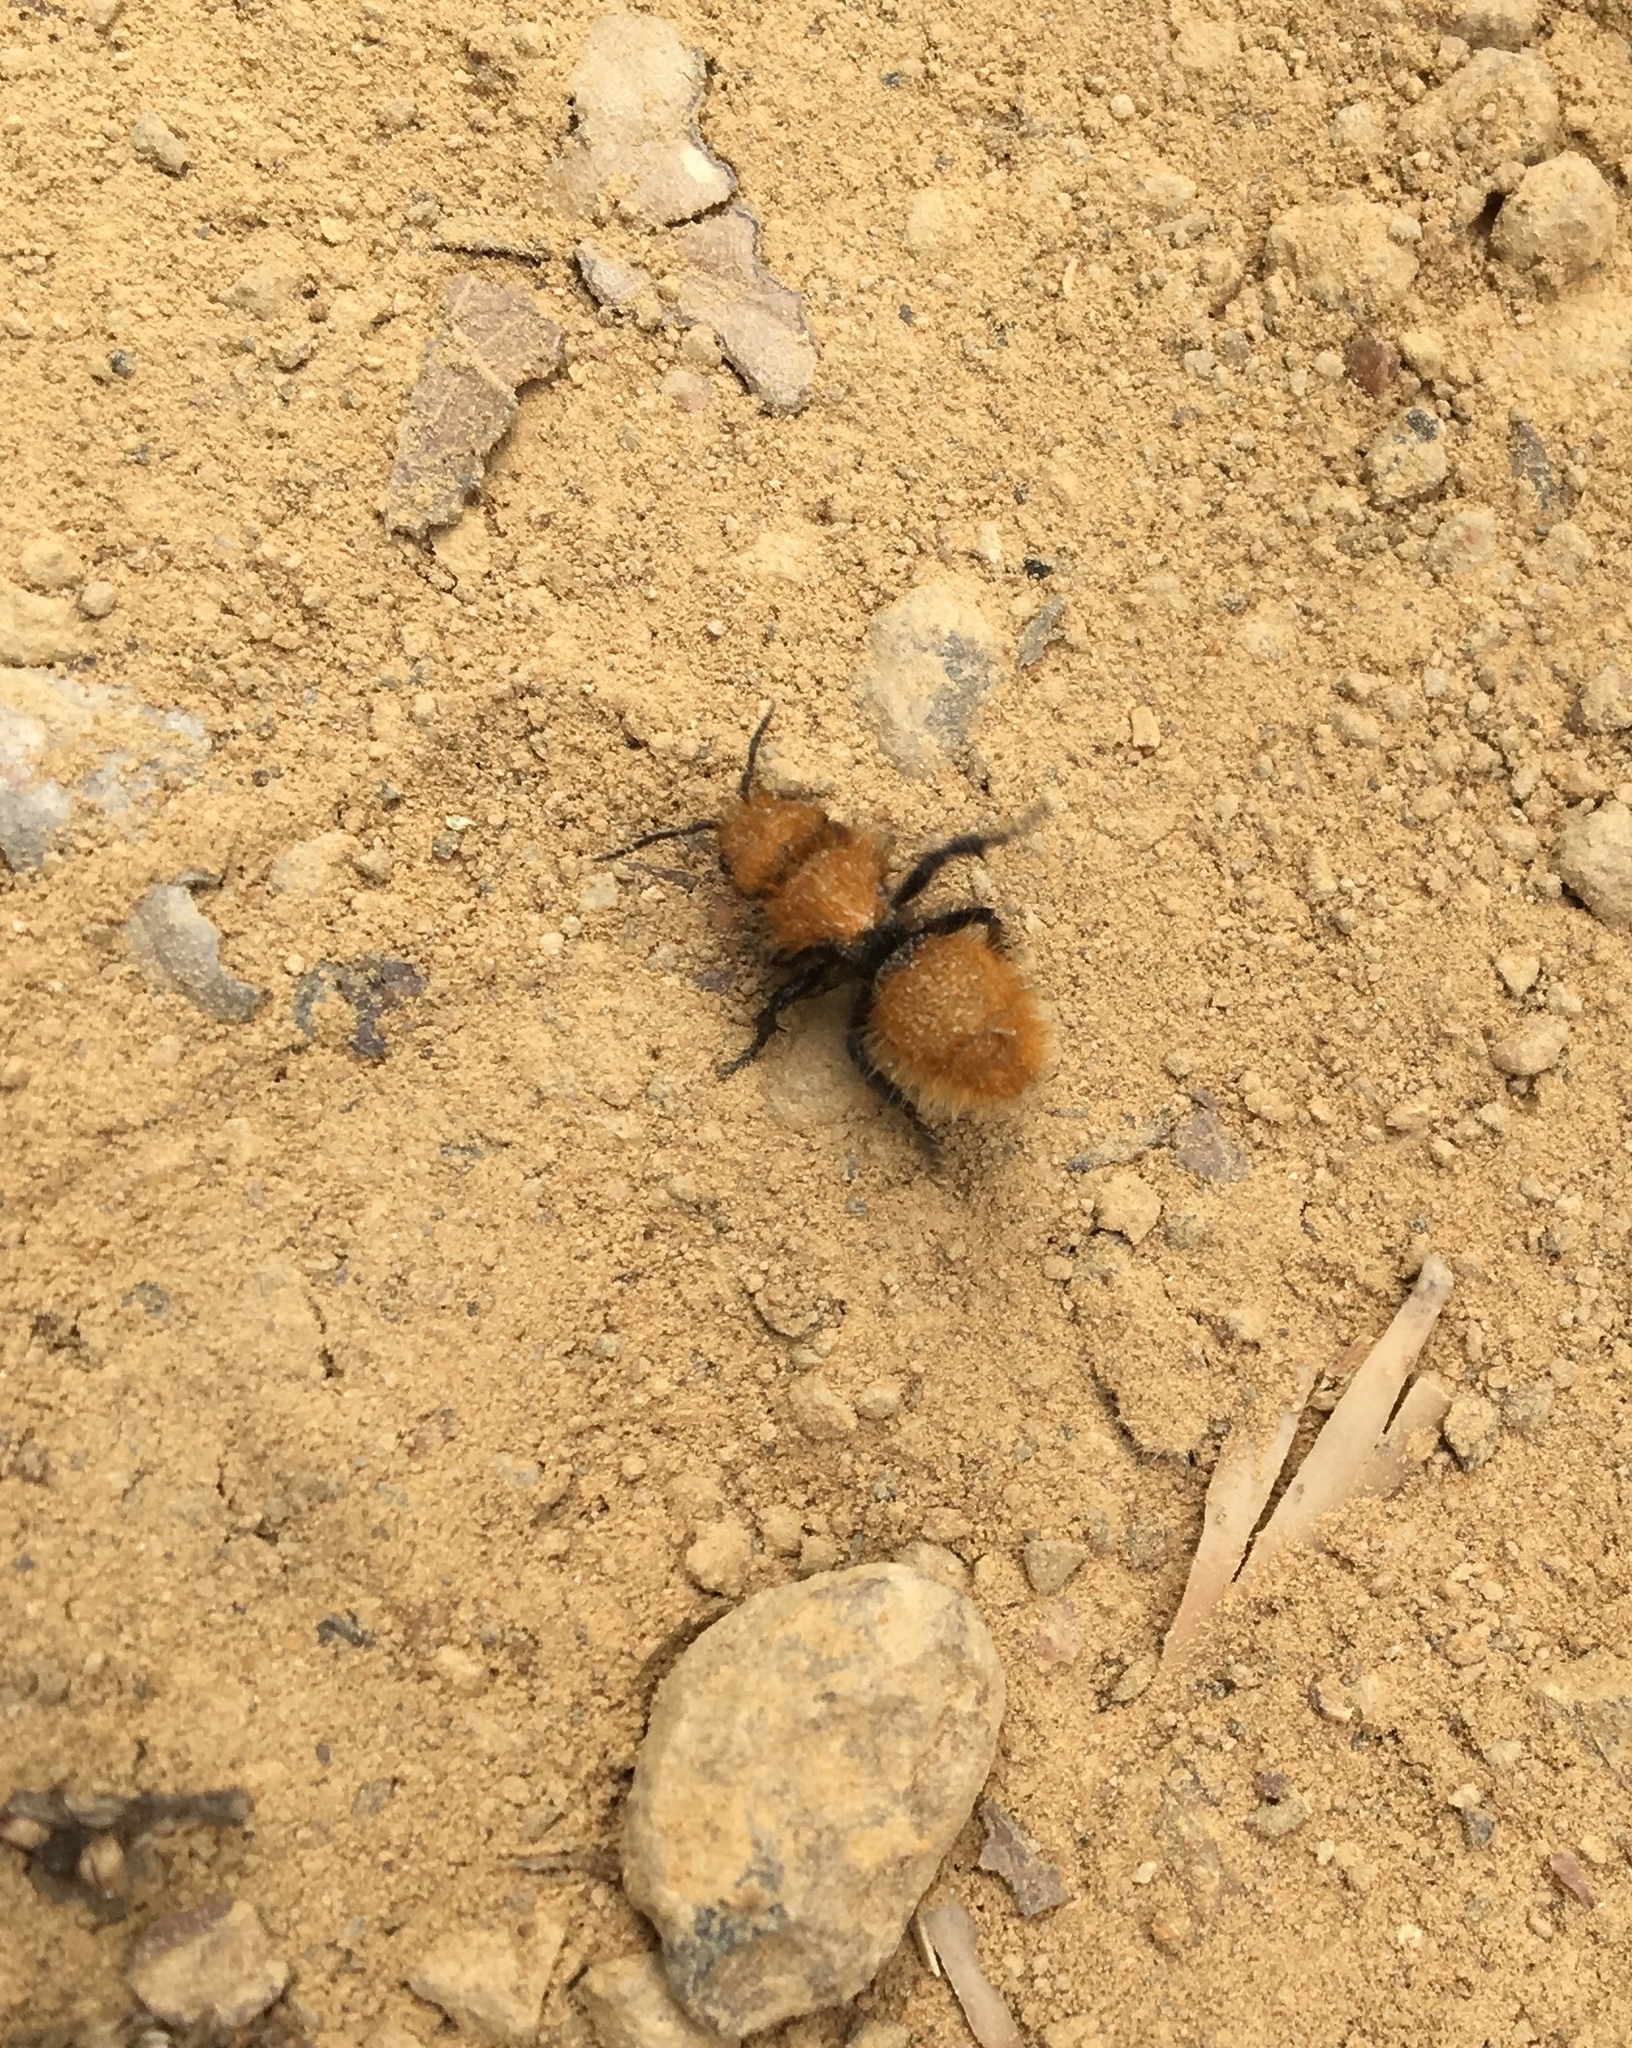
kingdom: Animalia
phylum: Arthropoda
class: Insecta
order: Hymenoptera
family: Mutillidae
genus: Dasymutilla
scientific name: Dasymutilla
